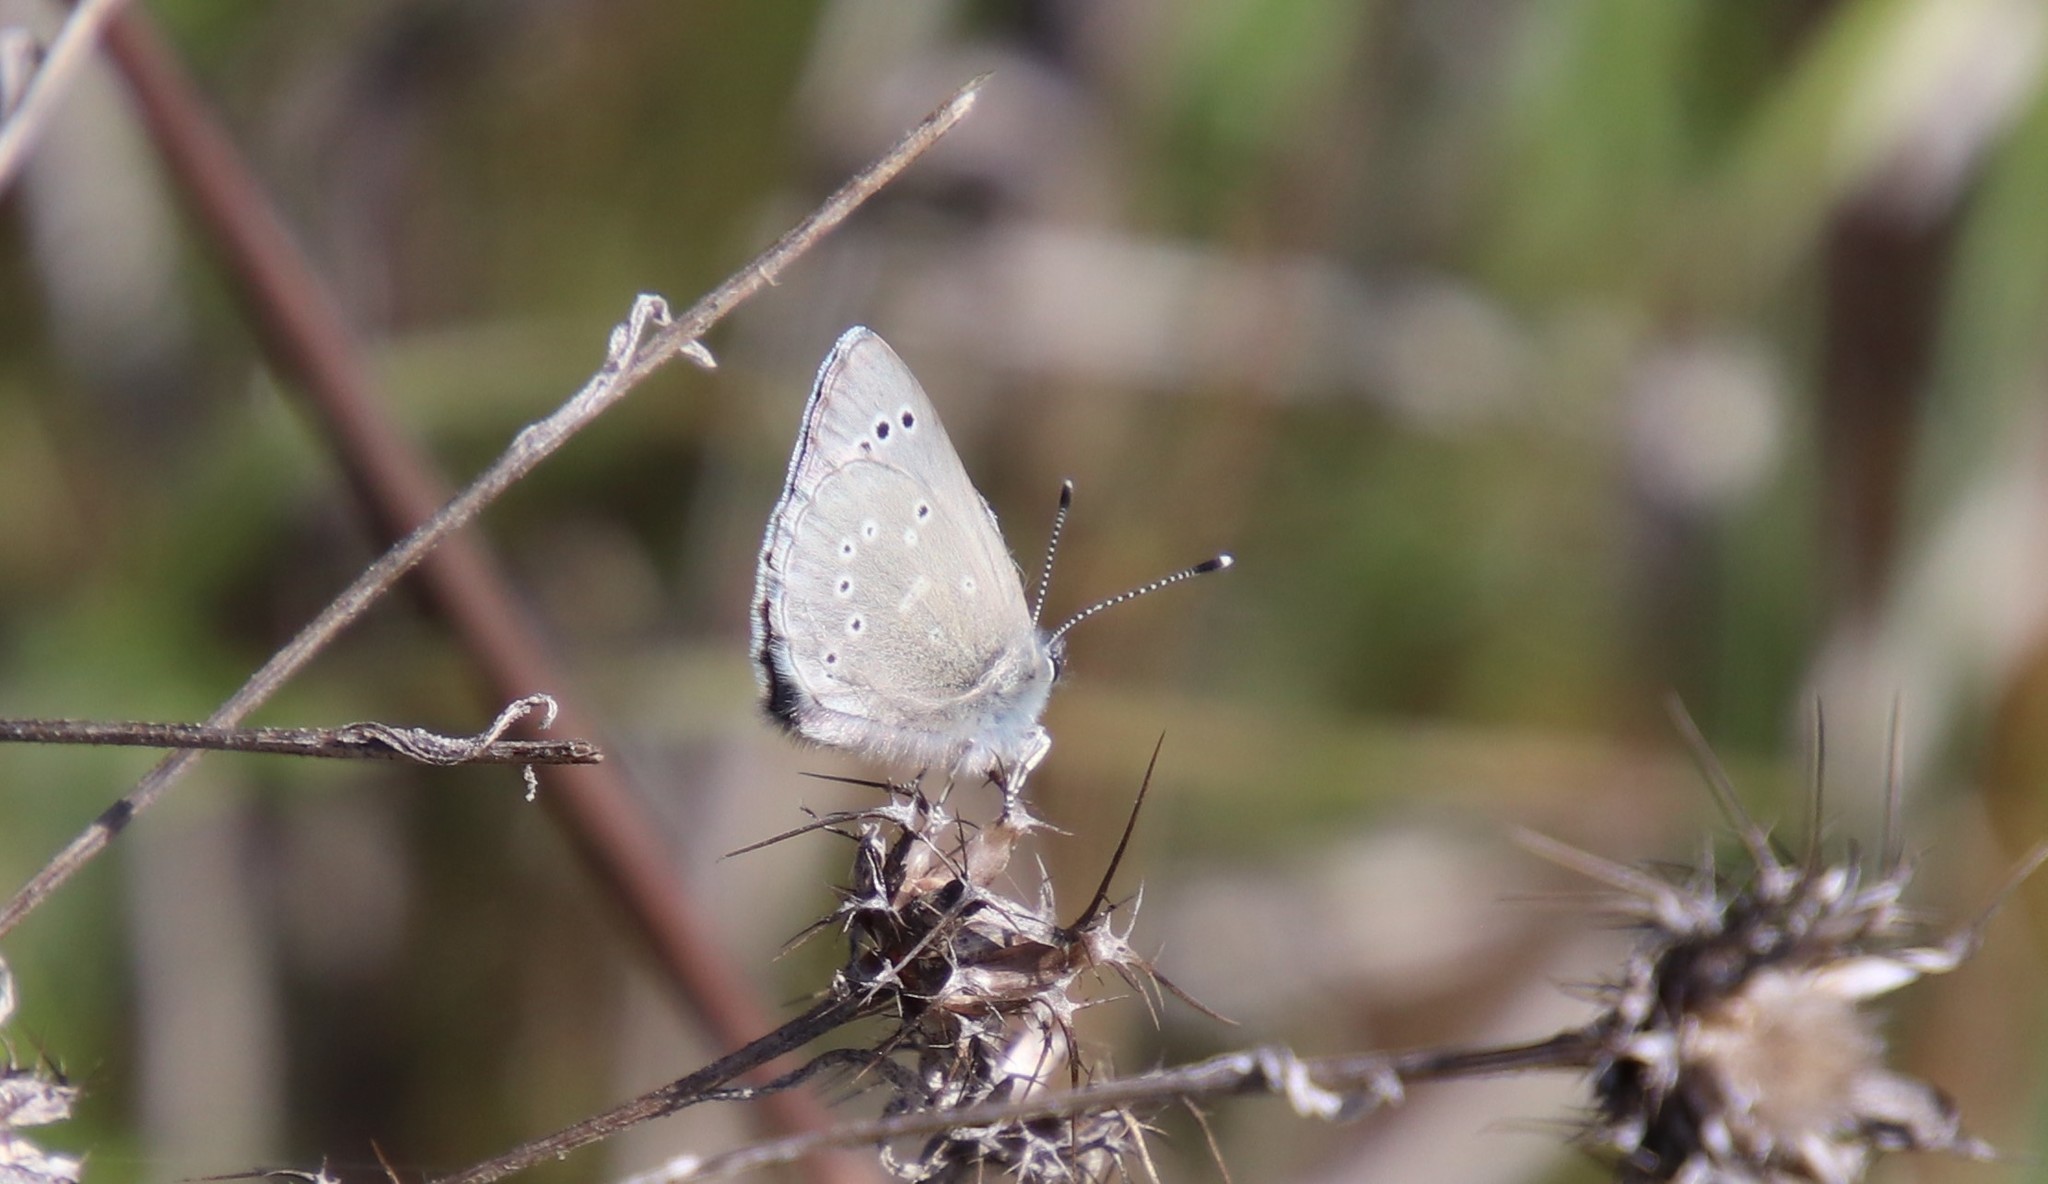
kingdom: Animalia
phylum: Arthropoda
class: Insecta
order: Lepidoptera
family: Lycaenidae
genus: Glaucopsyche
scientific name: Glaucopsyche lygdamus
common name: Silvery blue
